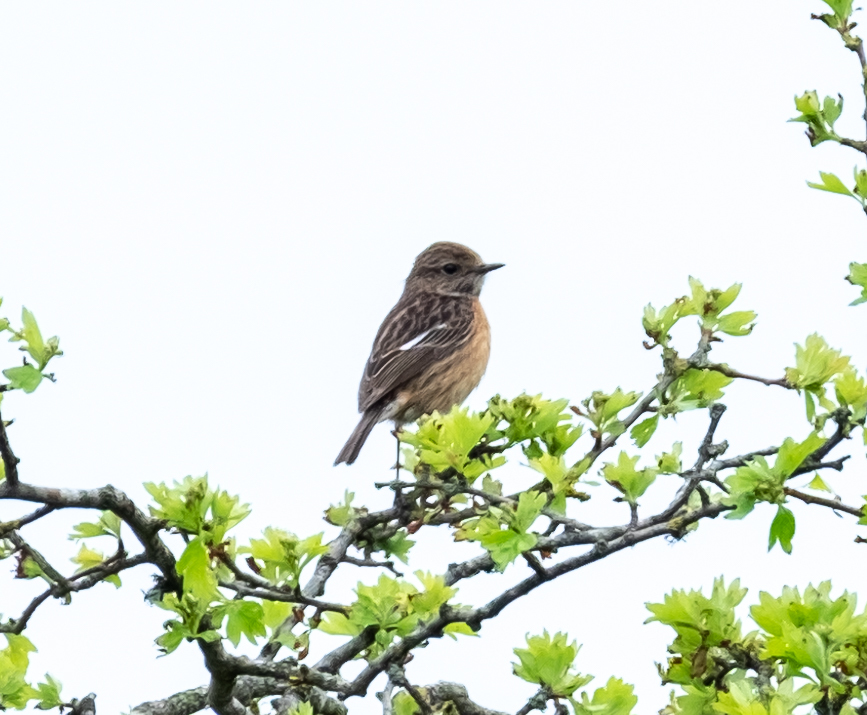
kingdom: Animalia
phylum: Chordata
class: Aves
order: Passeriformes
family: Muscicapidae
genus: Saxicola
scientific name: Saxicola rubicola
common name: European stonechat
